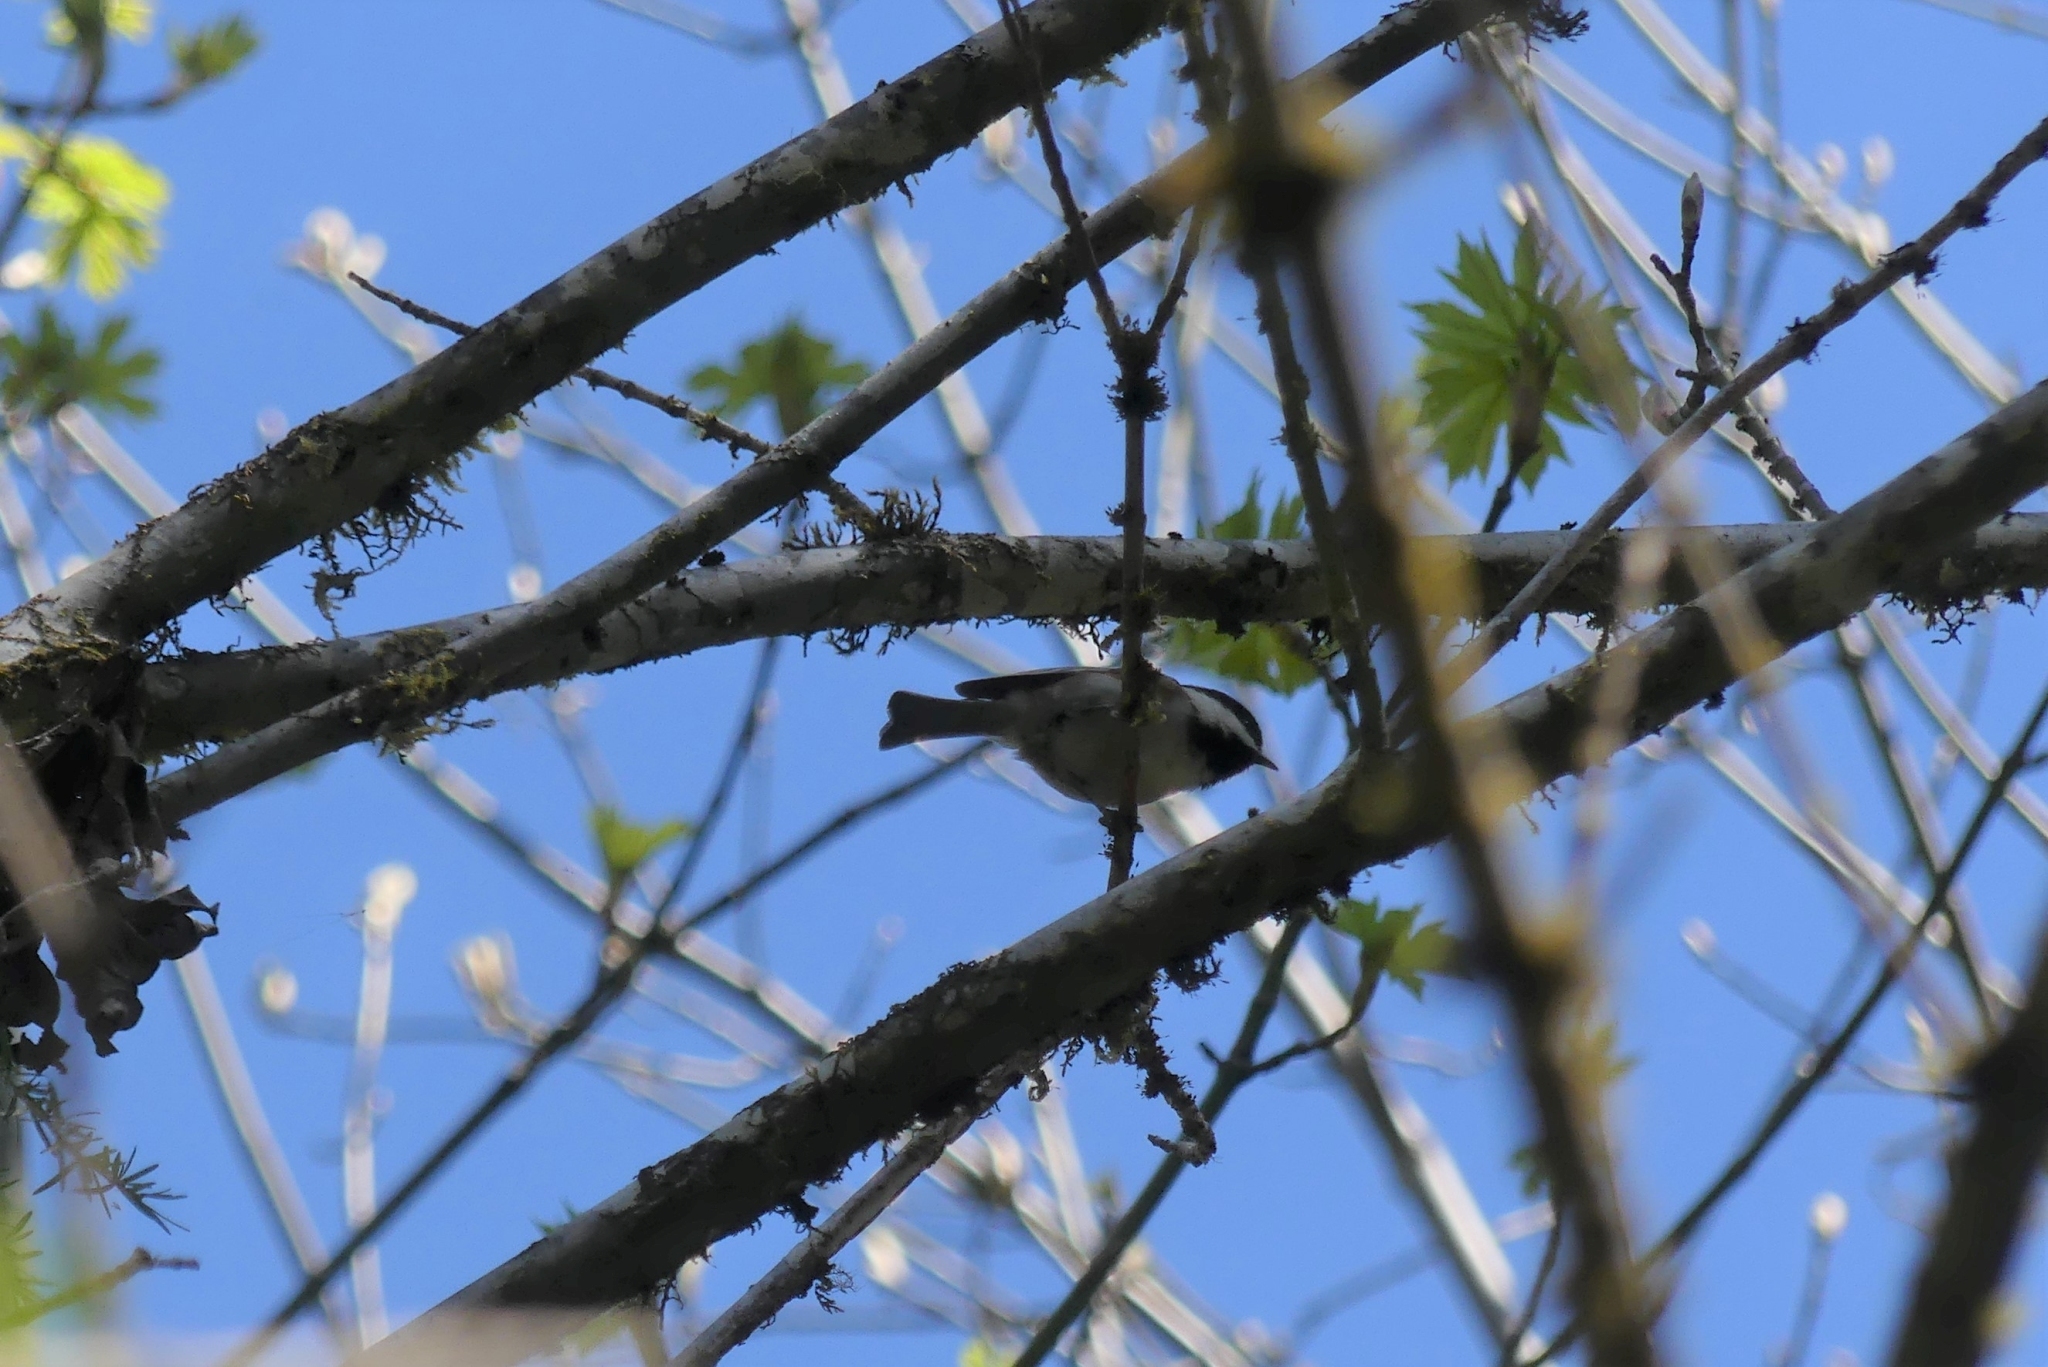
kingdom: Animalia
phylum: Chordata
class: Aves
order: Passeriformes
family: Paridae
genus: Poecile
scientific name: Poecile rufescens
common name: Chestnut-backed chickadee
